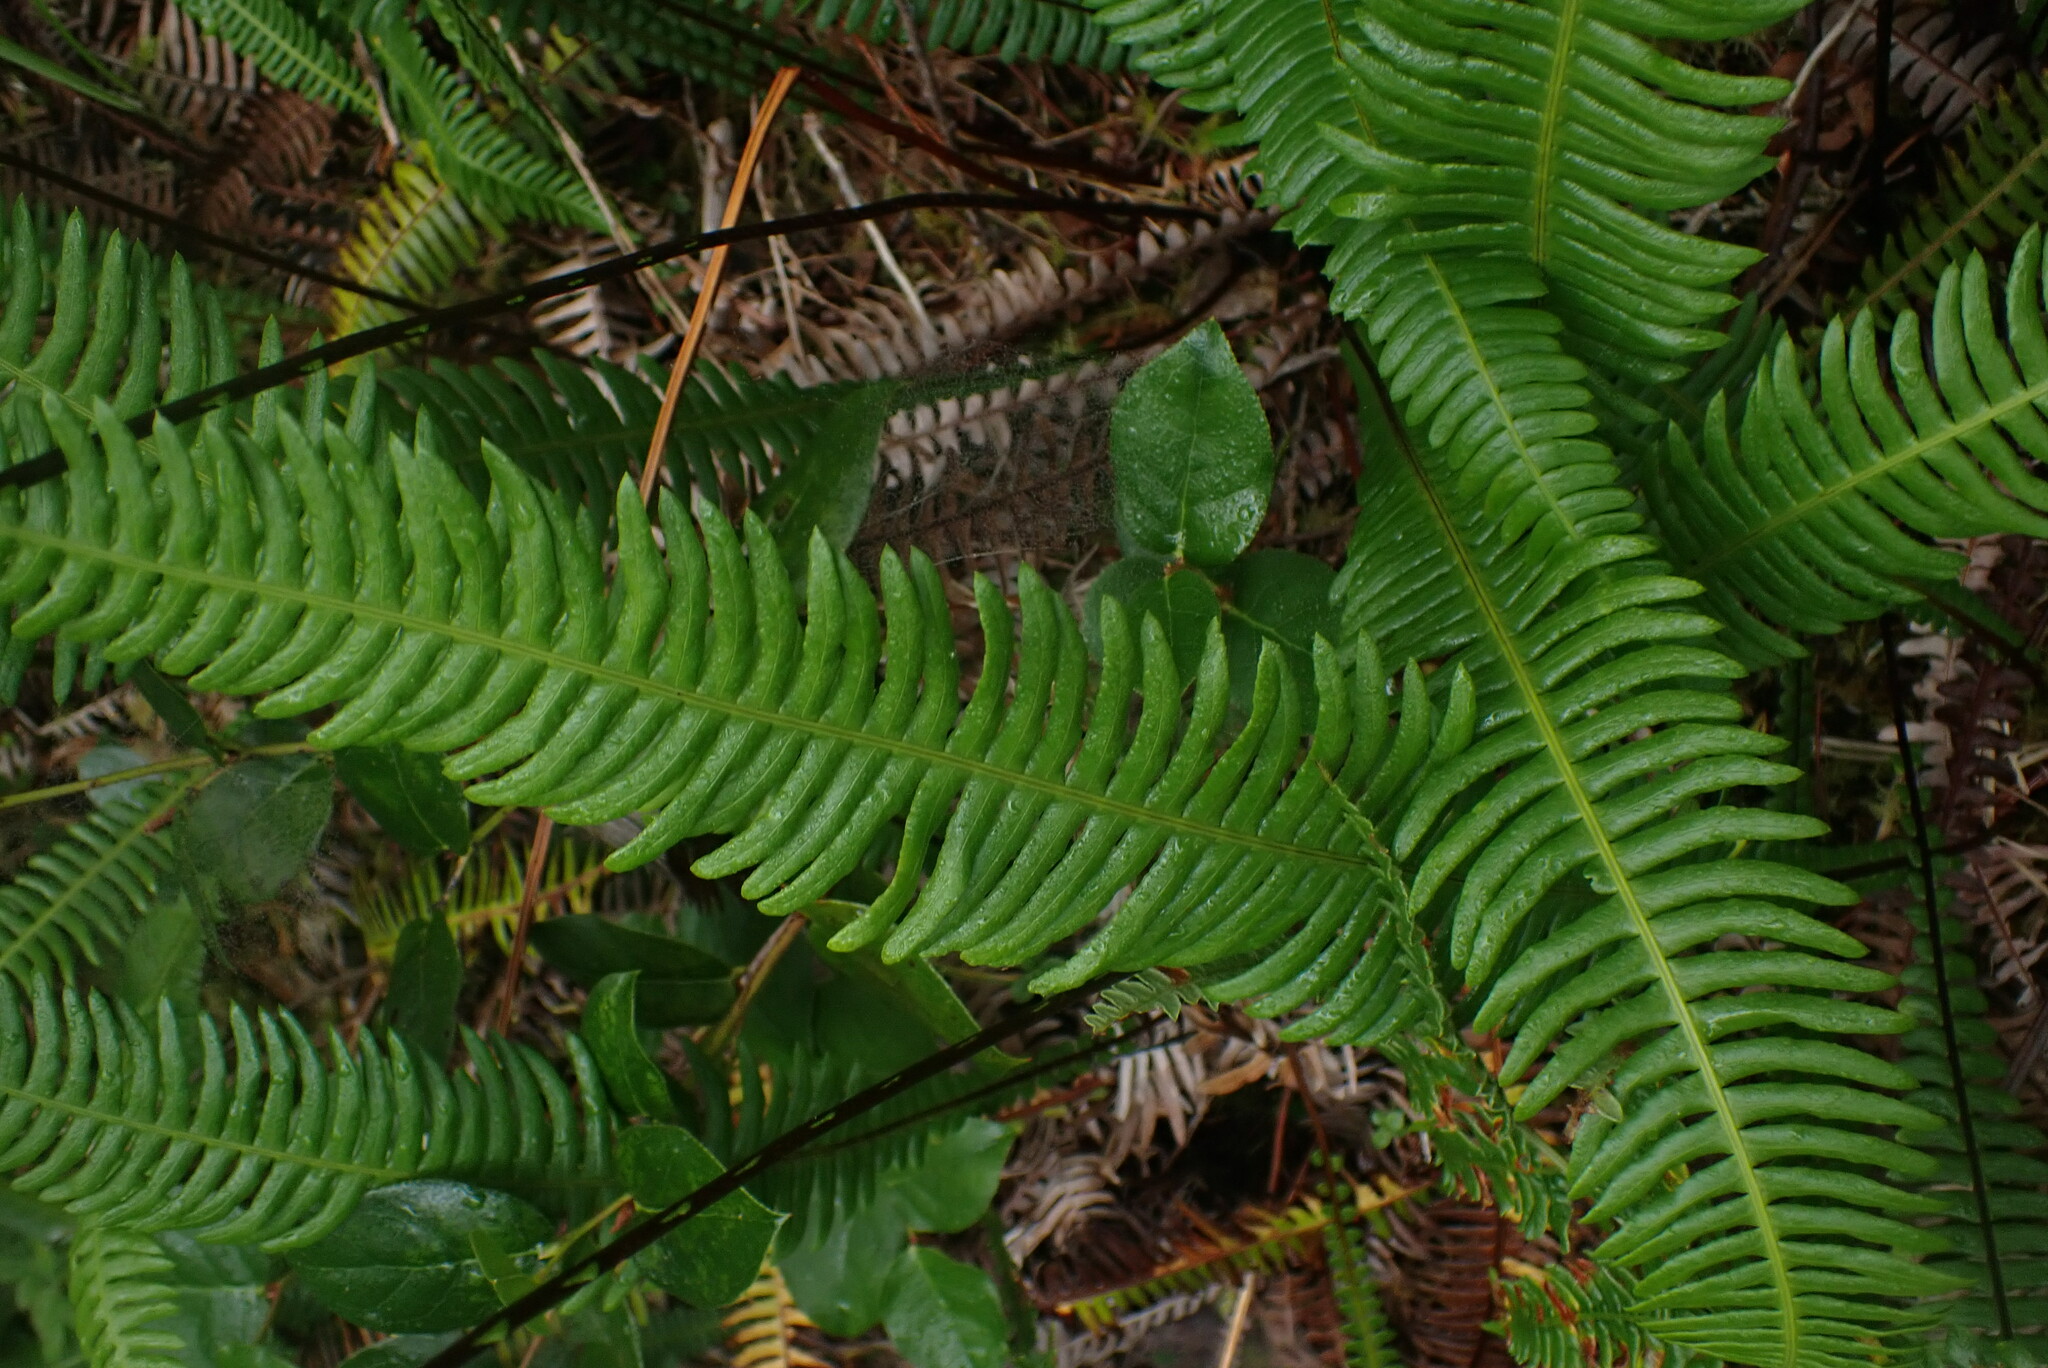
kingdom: Plantae
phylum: Tracheophyta
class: Polypodiopsida
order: Polypodiales
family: Blechnaceae
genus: Struthiopteris
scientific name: Struthiopteris spicant
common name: Deer fern
